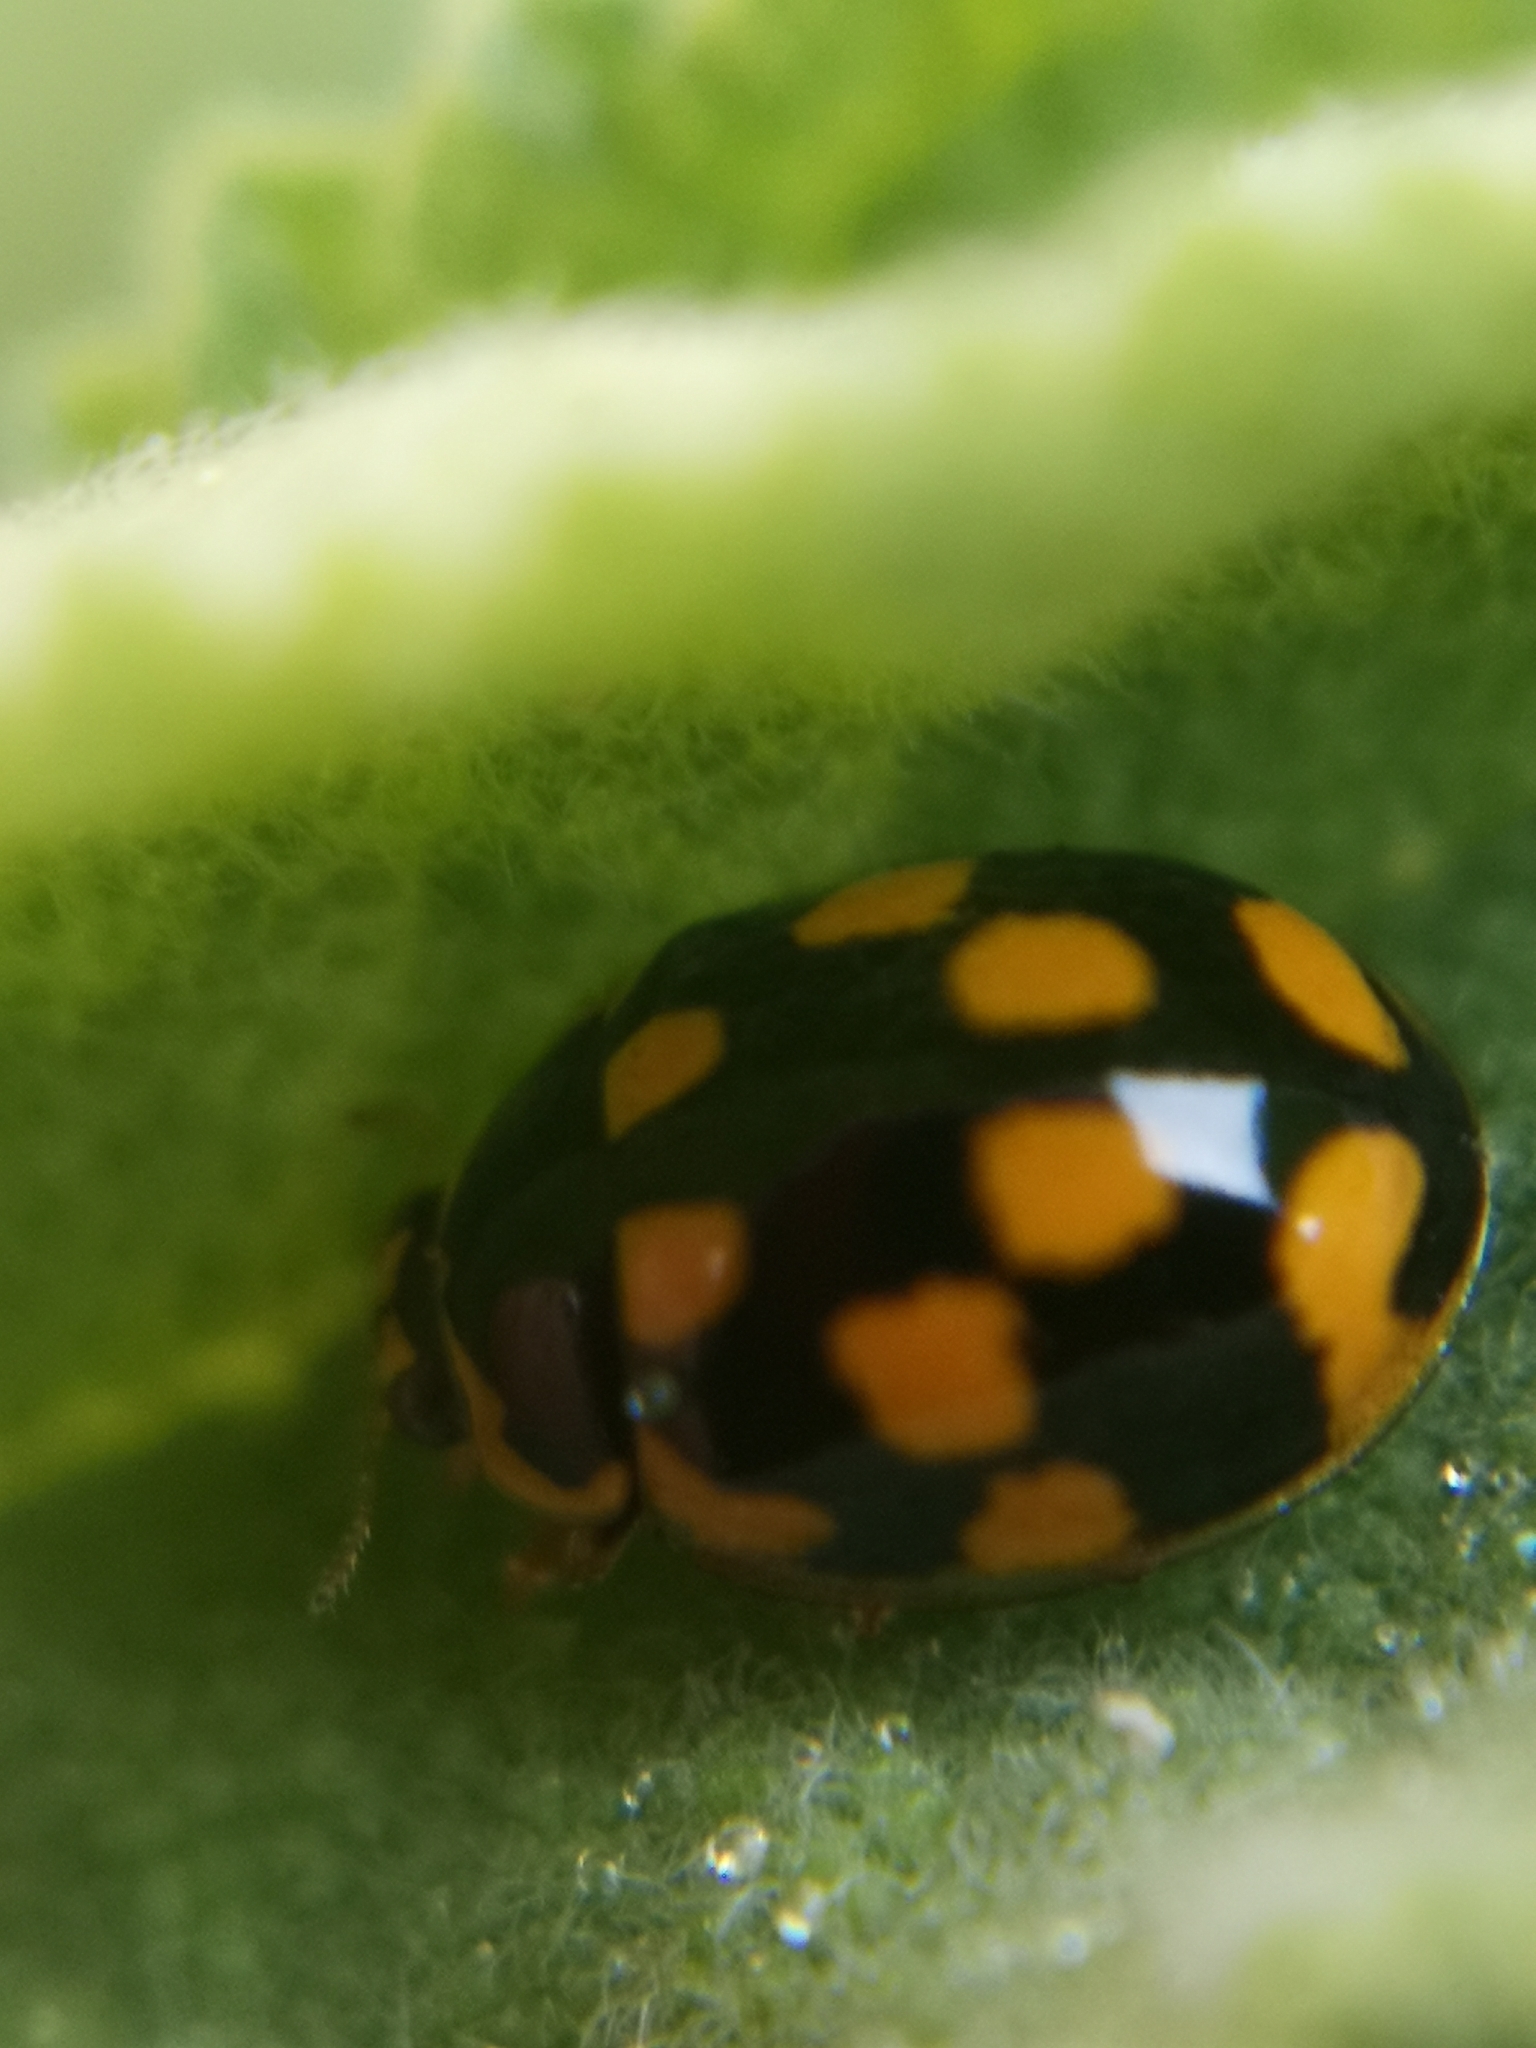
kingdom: Animalia
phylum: Arthropoda
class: Insecta
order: Coleoptera
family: Coccinellidae
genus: Propylaea
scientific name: Propylaea quatuordecimpunctata
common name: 14-spotted ladybird beetle
